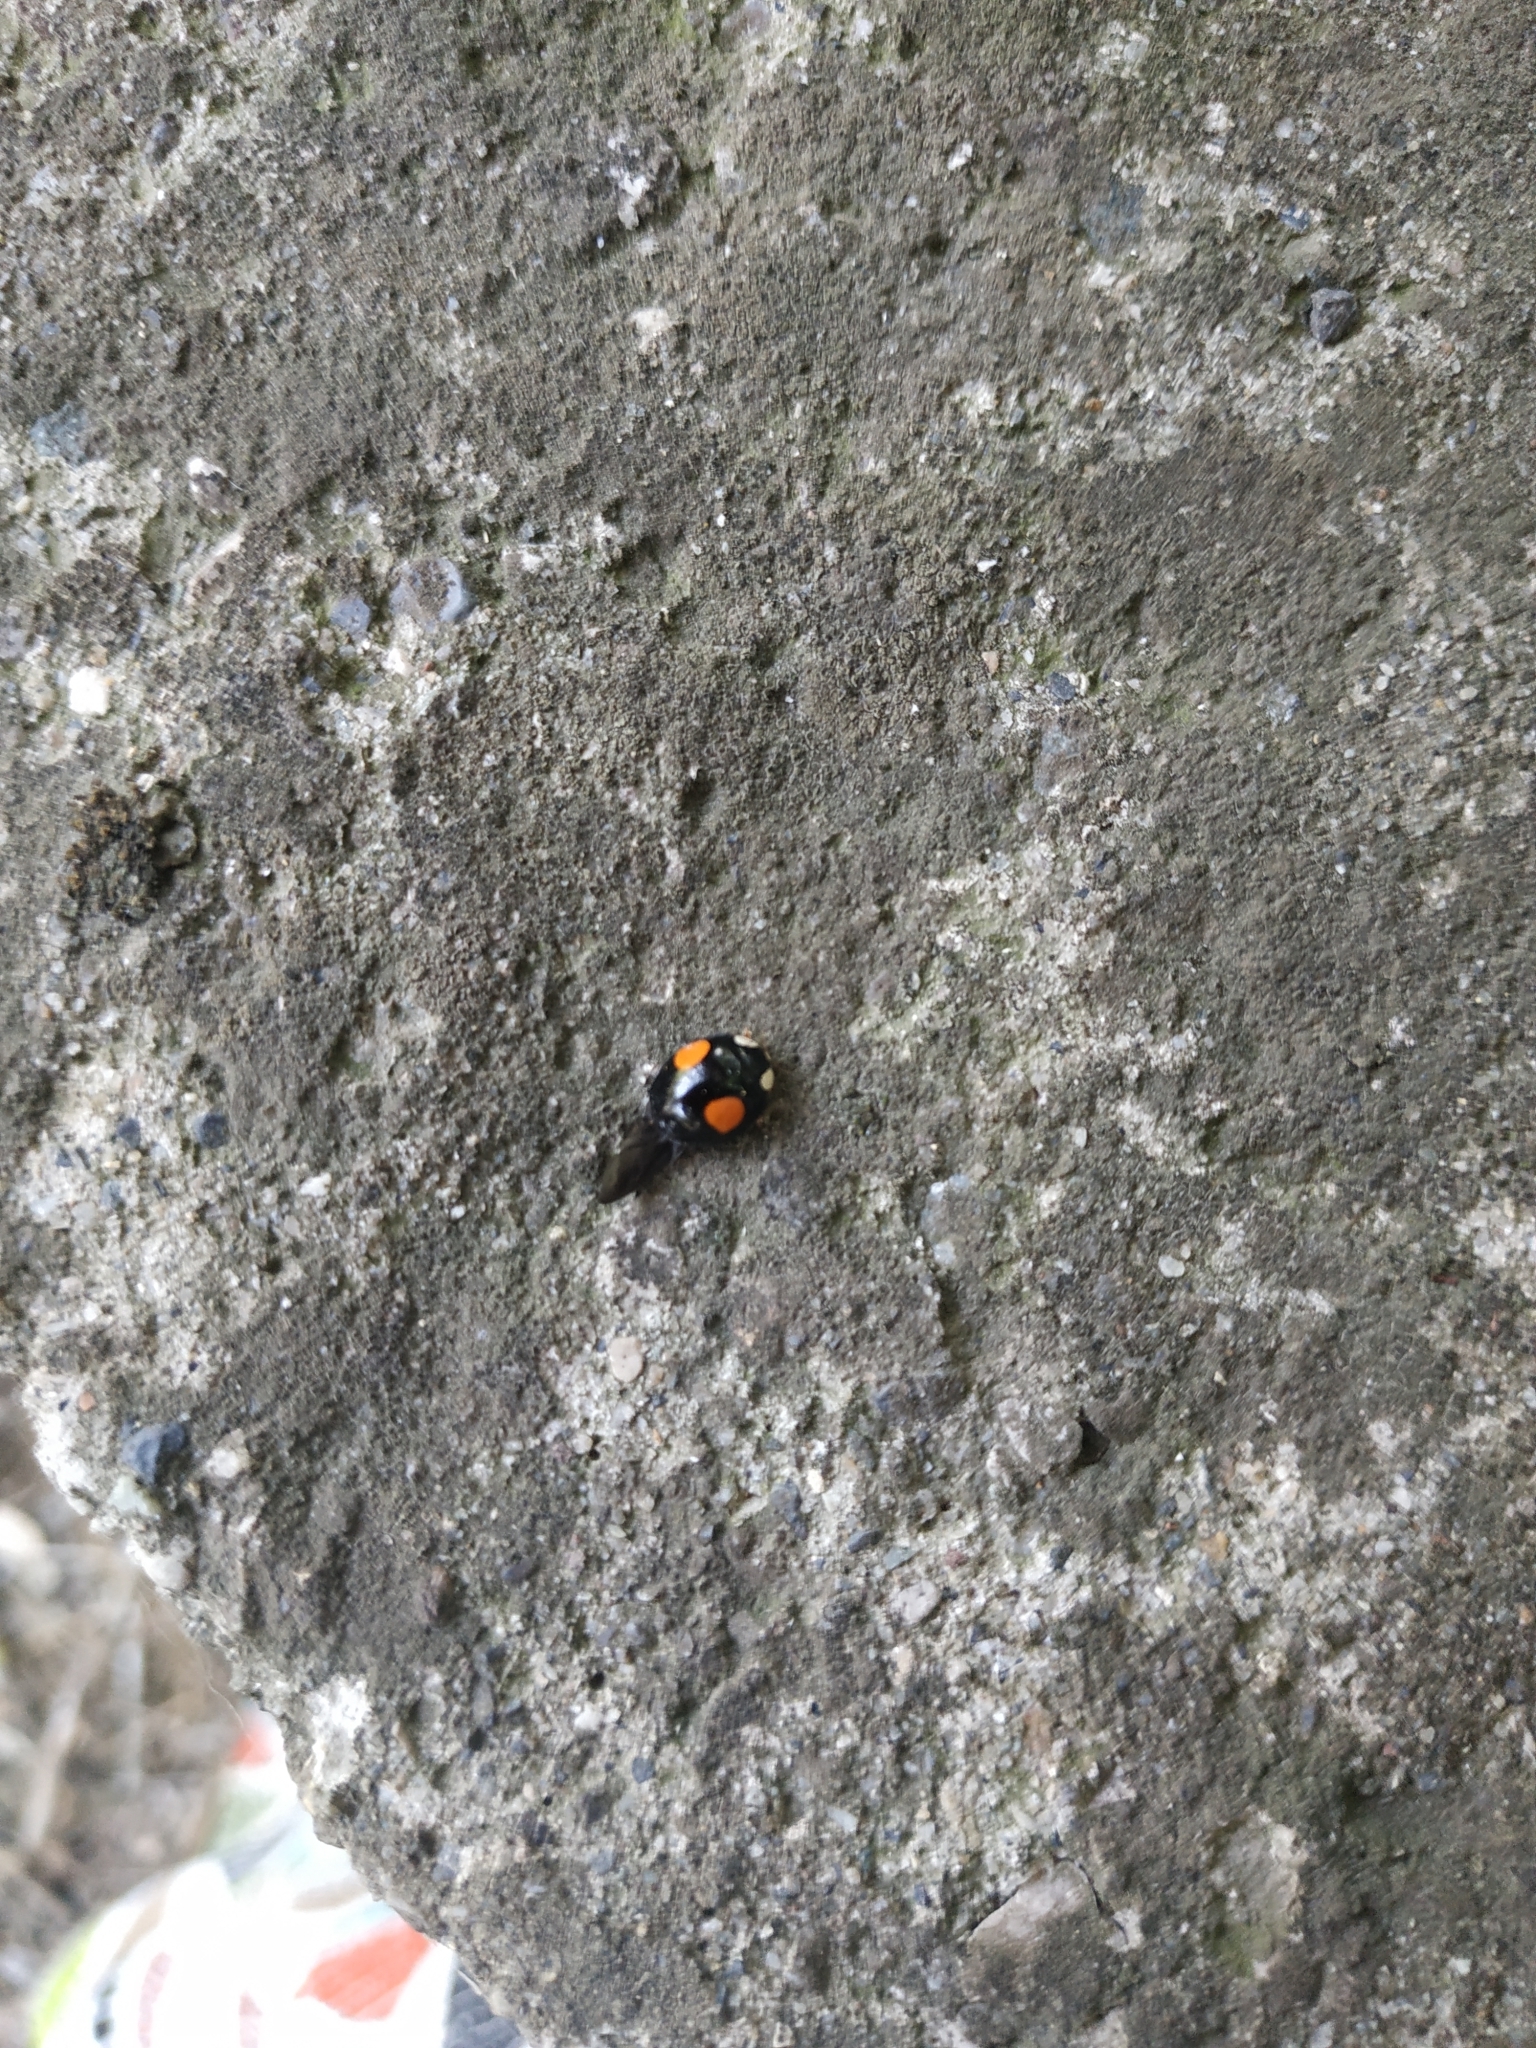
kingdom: Animalia
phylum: Arthropoda
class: Insecta
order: Coleoptera
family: Coccinellidae
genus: Harmonia
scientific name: Harmonia axyridis
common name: Harlequin ladybird
